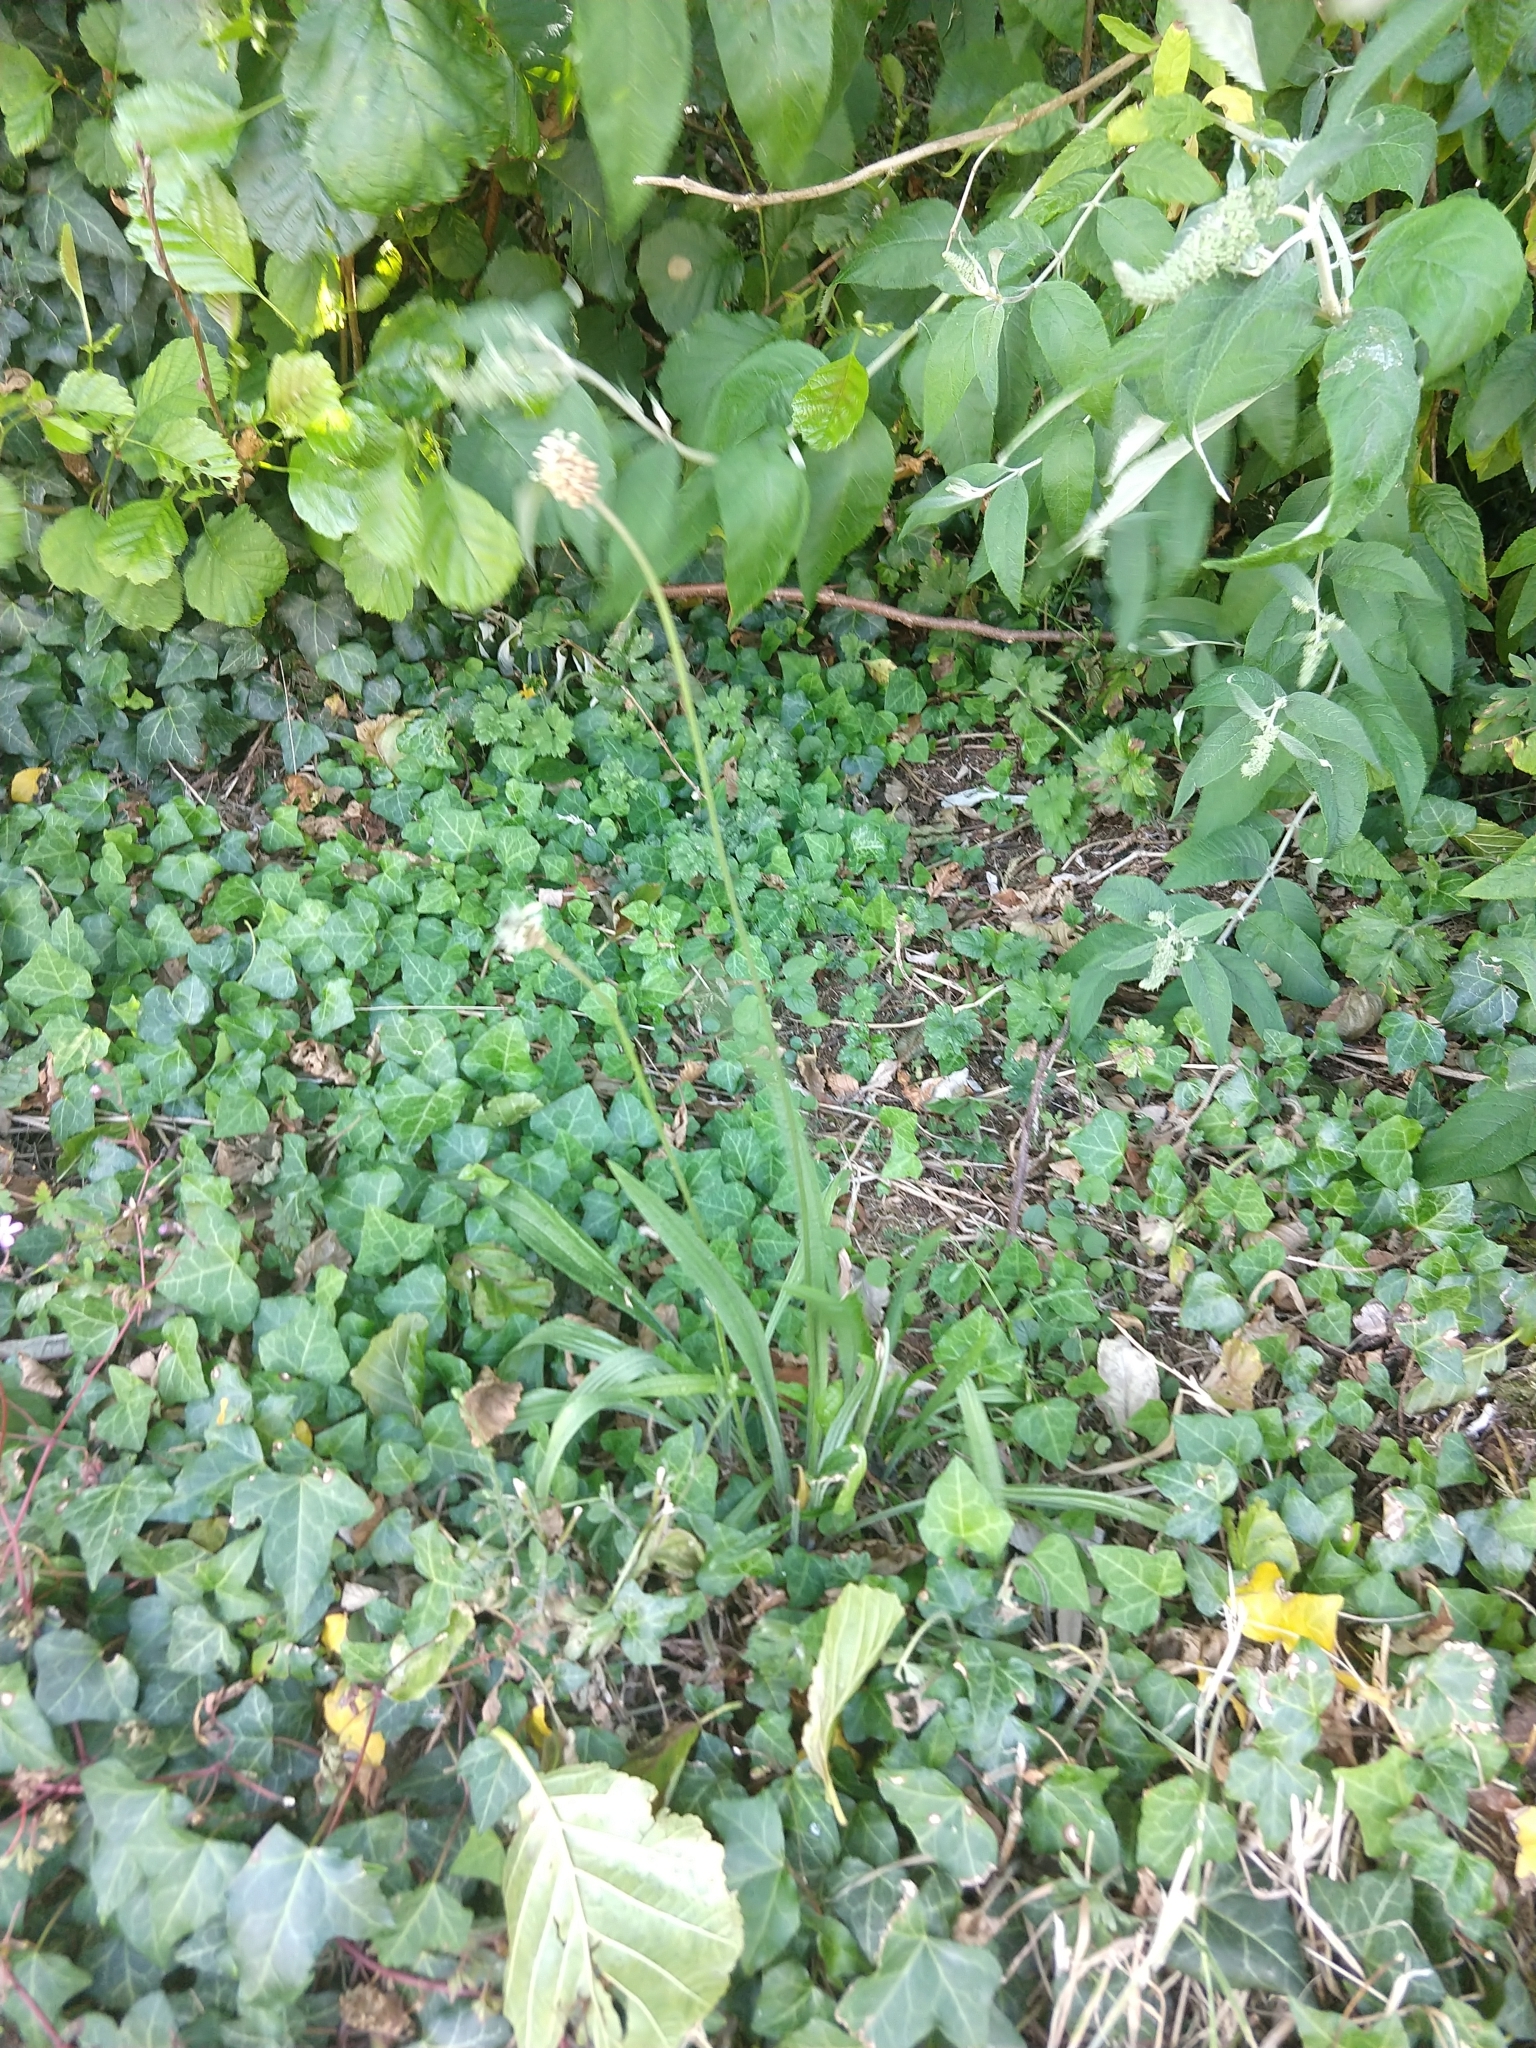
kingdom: Plantae
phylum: Tracheophyta
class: Magnoliopsida
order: Lamiales
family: Plantaginaceae
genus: Plantago
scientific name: Plantago lanceolata
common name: Ribwort plantain
